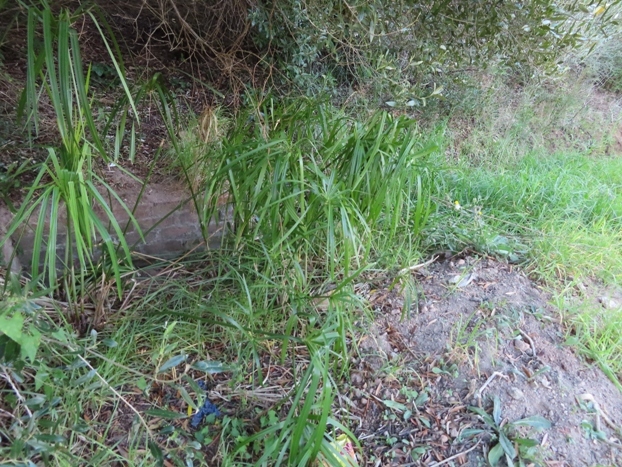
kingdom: Plantae
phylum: Tracheophyta
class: Liliopsida
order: Poales
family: Cyperaceae
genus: Cyperus
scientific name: Cyperus textilis
